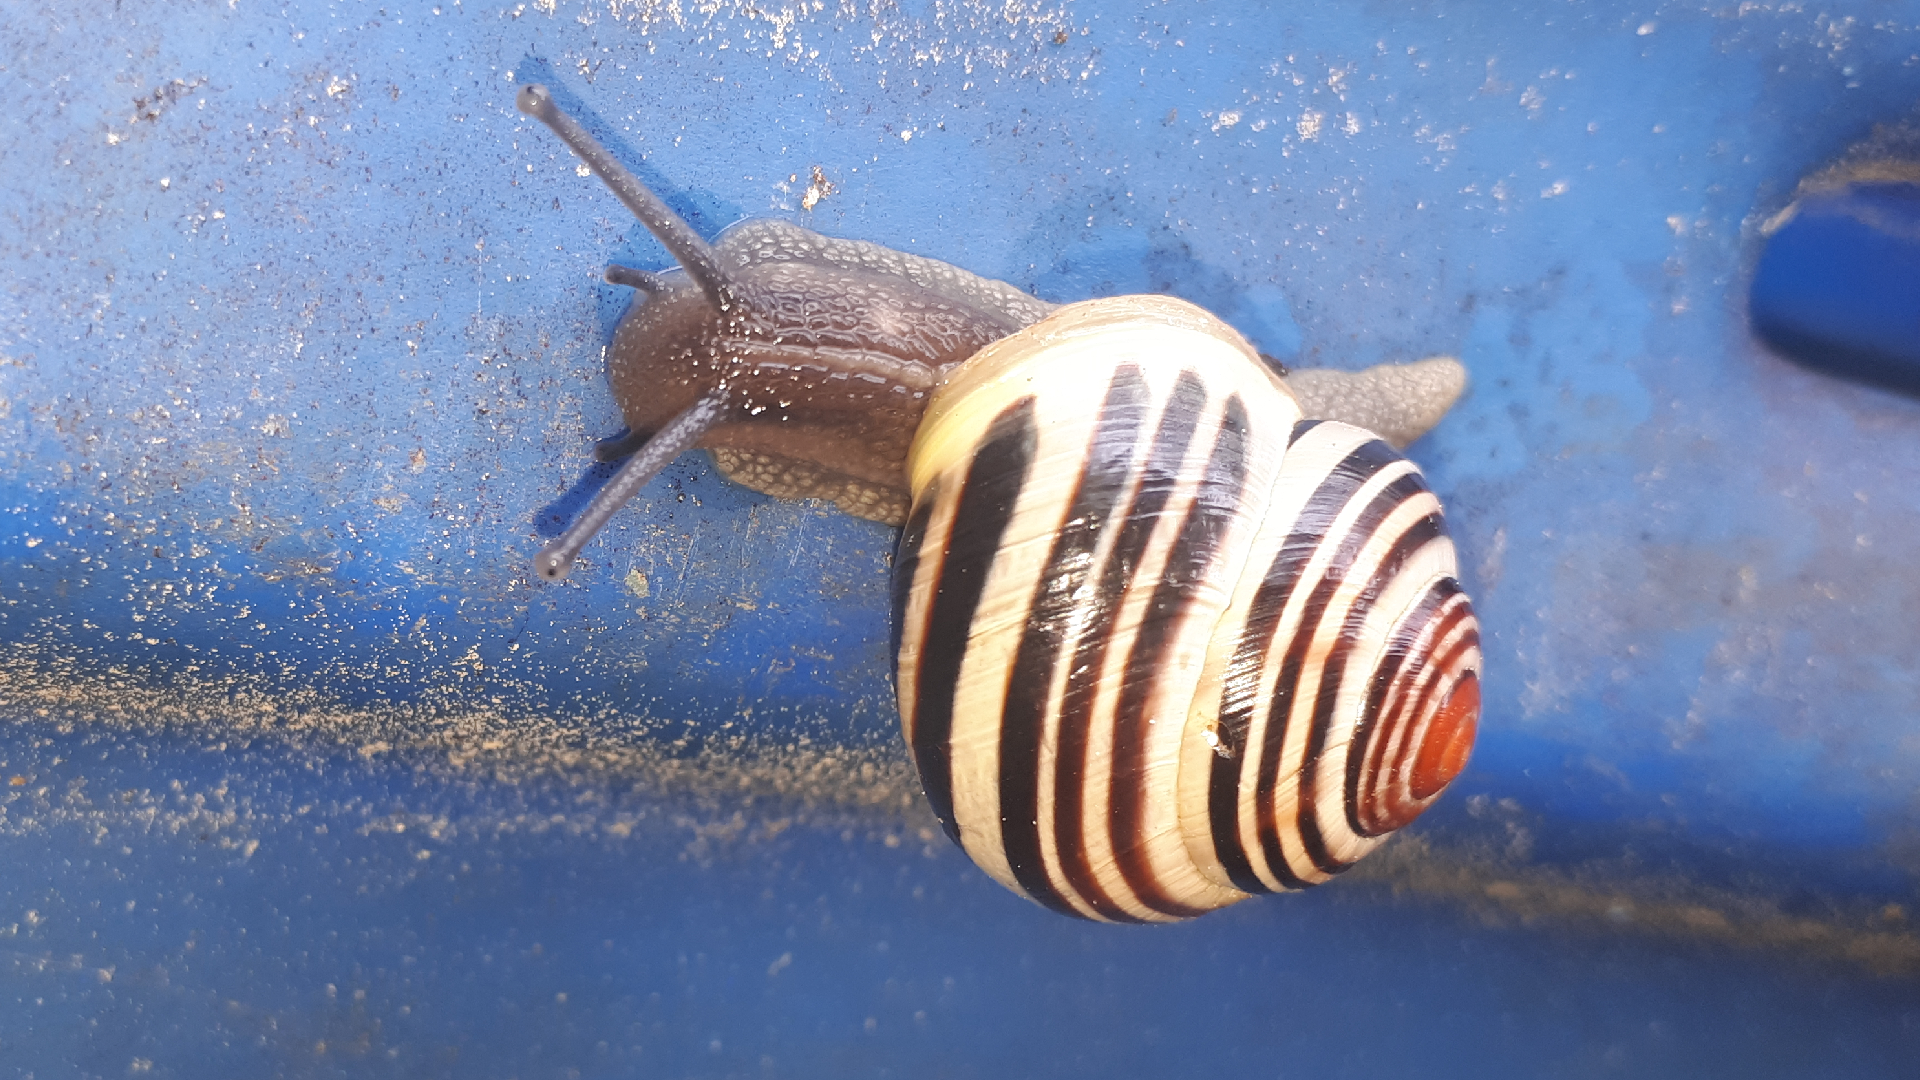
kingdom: Animalia
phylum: Mollusca
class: Gastropoda
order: Stylommatophora
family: Helicidae
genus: Cepaea
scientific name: Cepaea hortensis
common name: White-lip gardensnail
